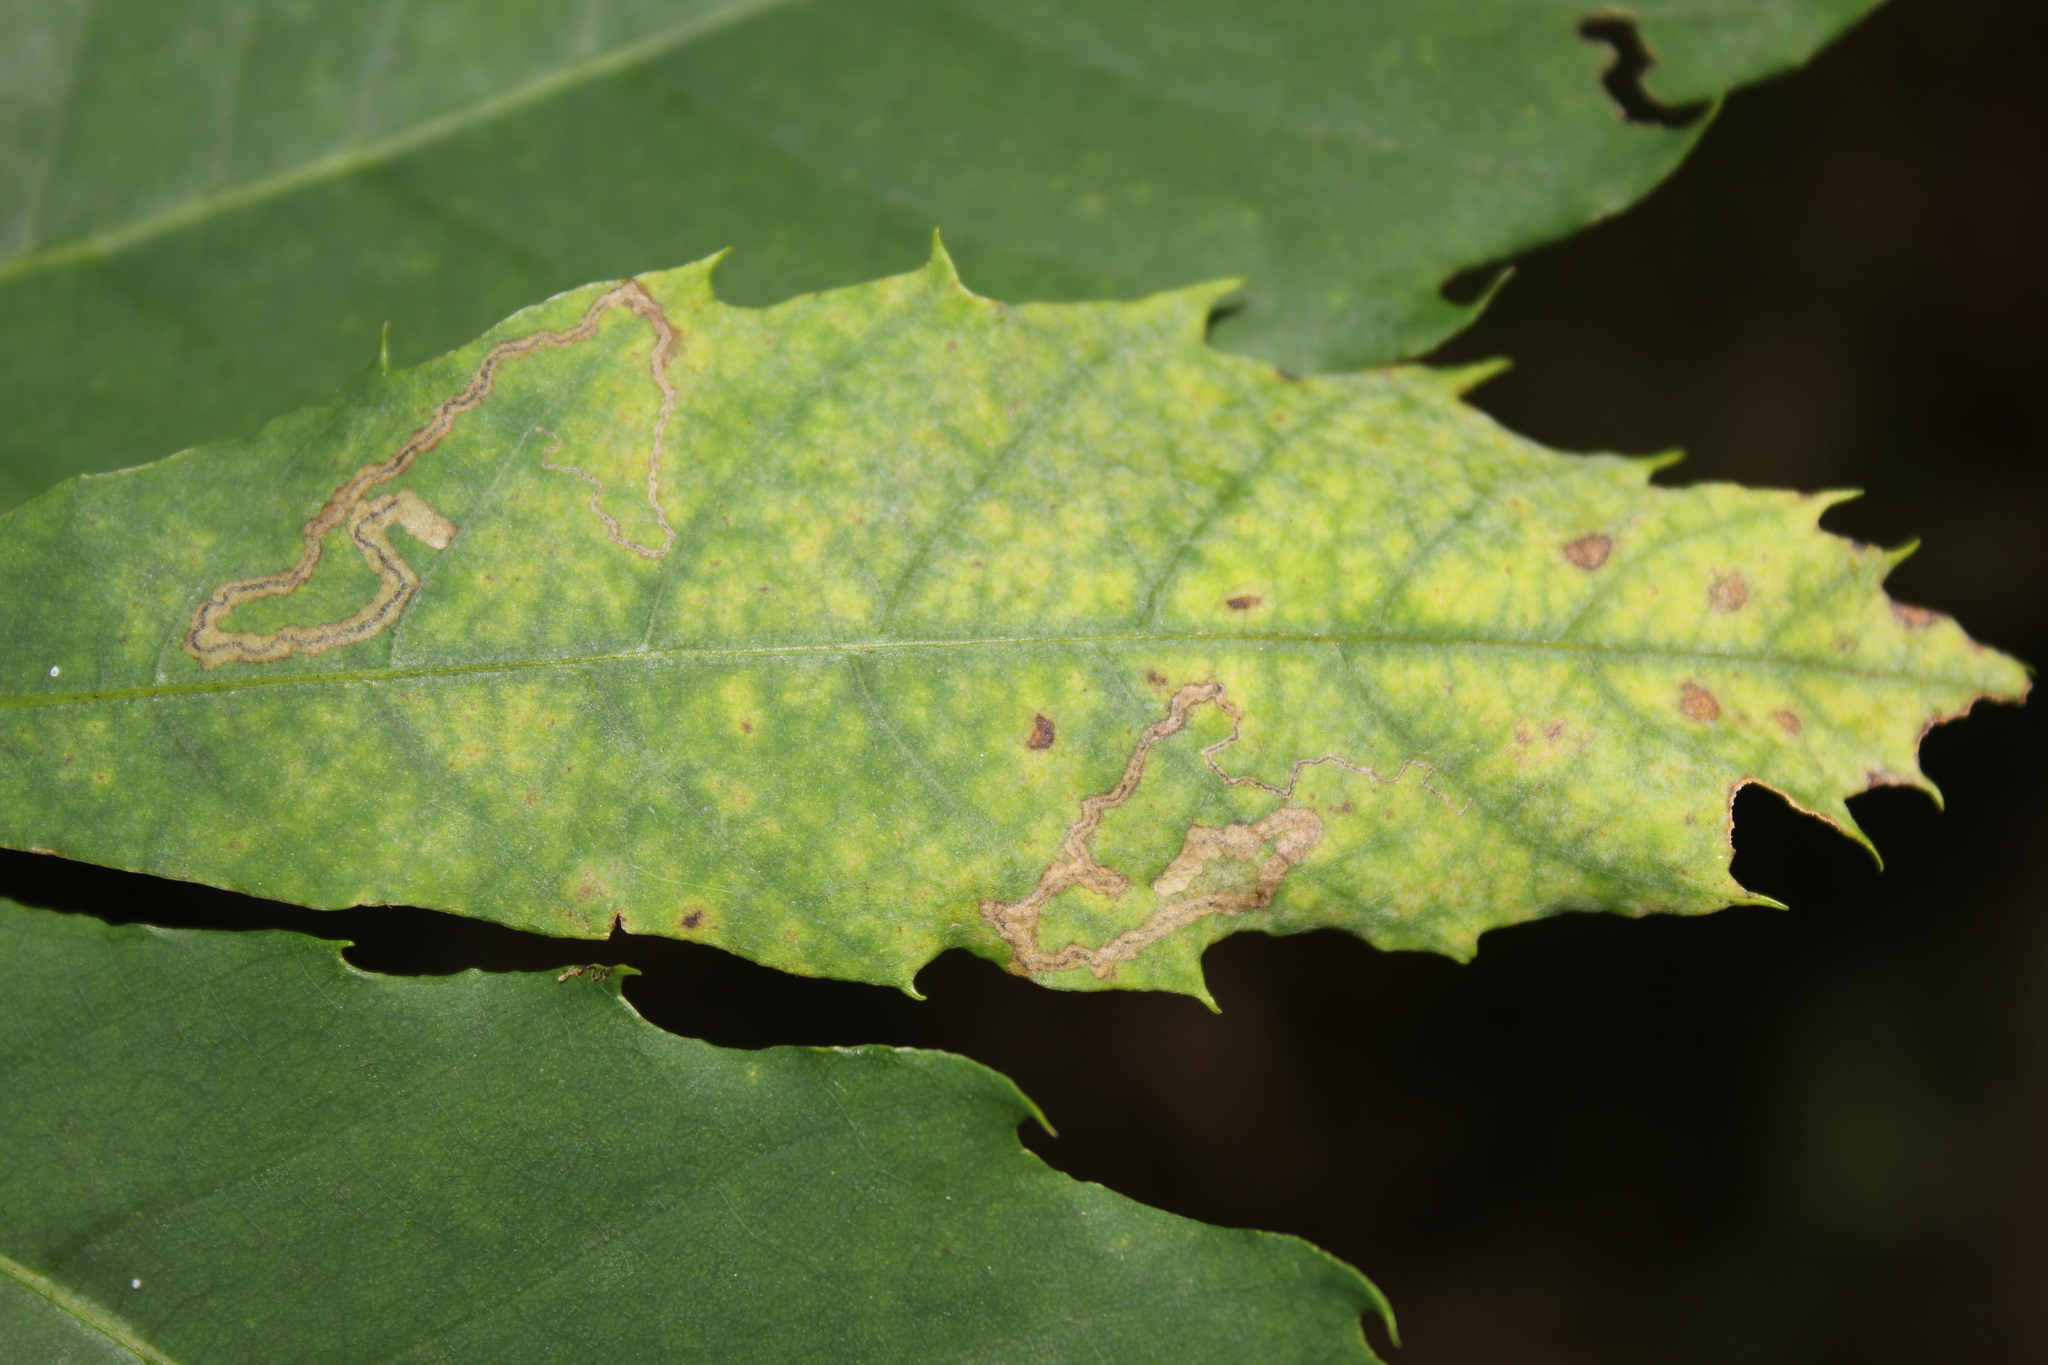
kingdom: Animalia
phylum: Arthropoda
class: Insecta
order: Lepidoptera
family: Nepticulidae
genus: Stigmella
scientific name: Stigmella
